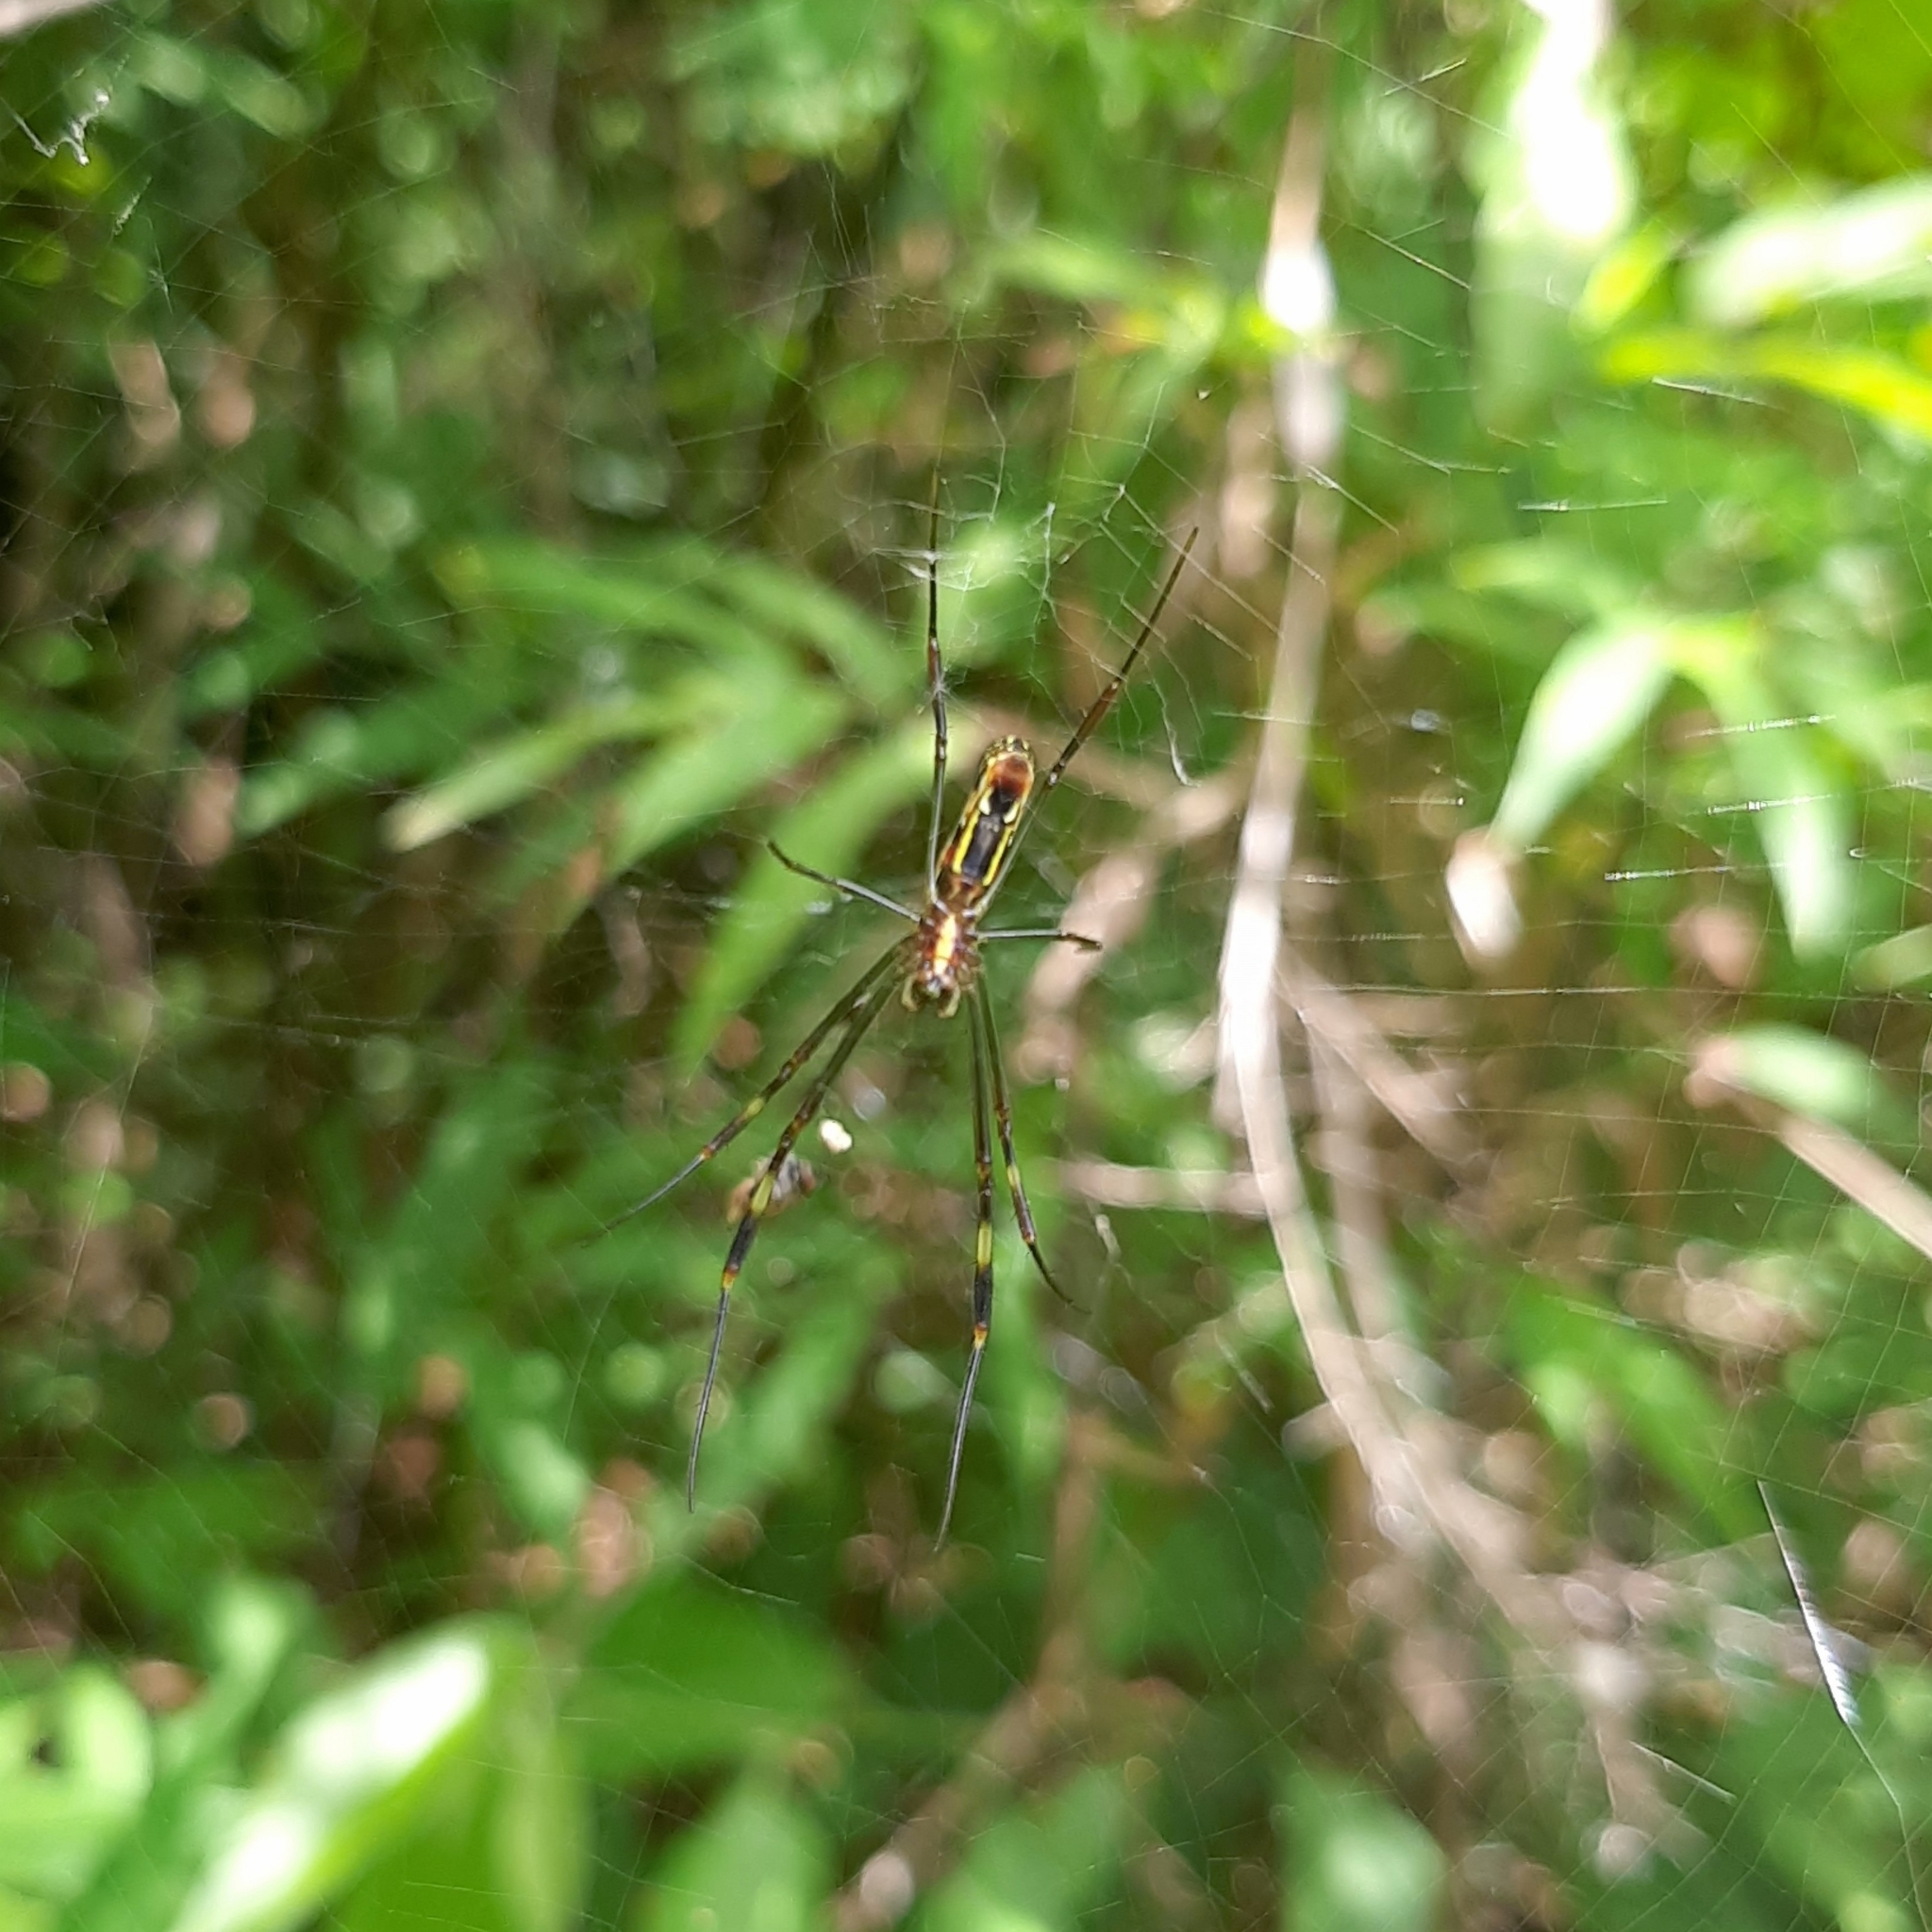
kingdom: Animalia
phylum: Arthropoda
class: Arachnida
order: Araneae
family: Araneidae
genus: Trichonephila
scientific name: Trichonephila clavipes
